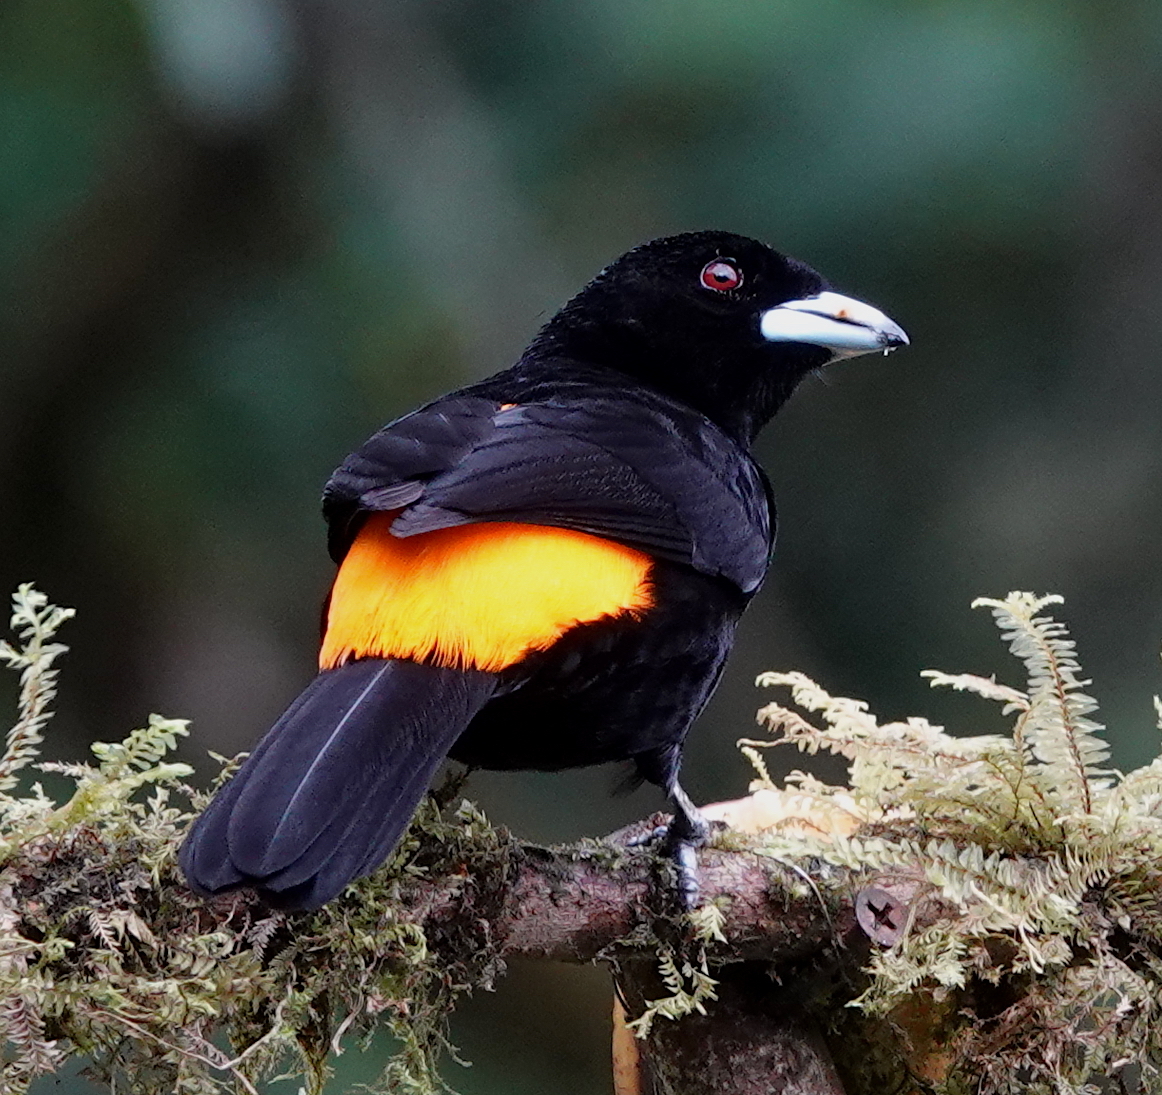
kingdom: Animalia
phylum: Chordata
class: Aves
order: Passeriformes
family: Thraupidae
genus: Ramphocelus
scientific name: Ramphocelus flammigerus
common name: Flame-rumped tanager
